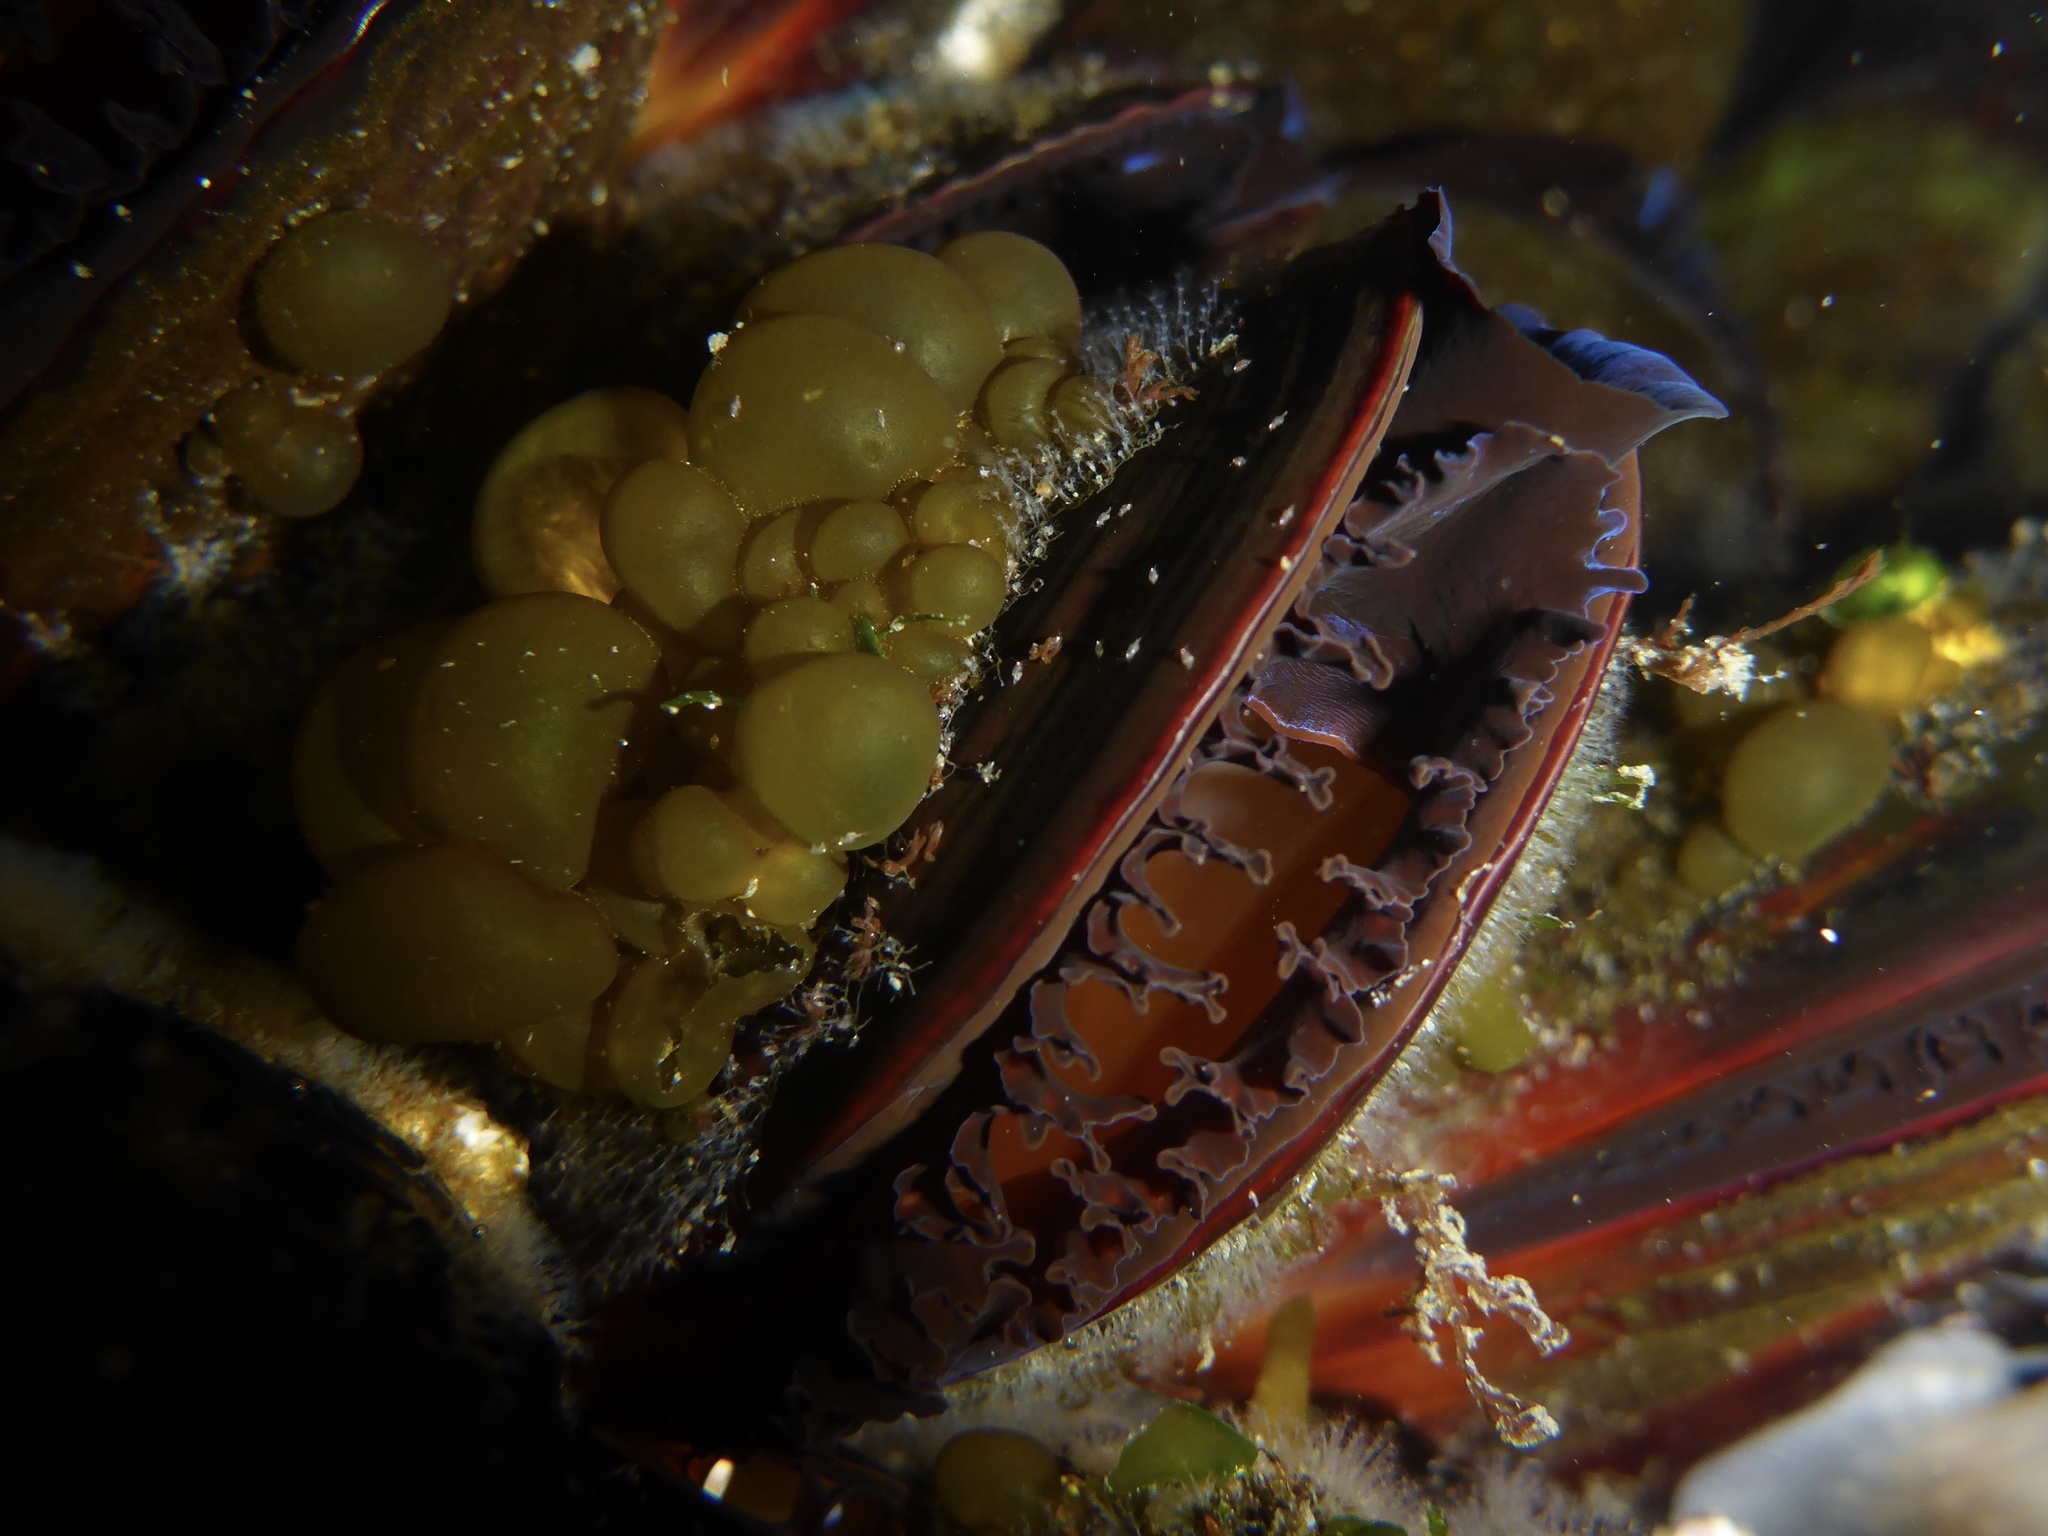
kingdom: Animalia
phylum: Mollusca
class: Bivalvia
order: Mytilida
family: Mytilidae
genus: Mytilus
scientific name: Mytilus
